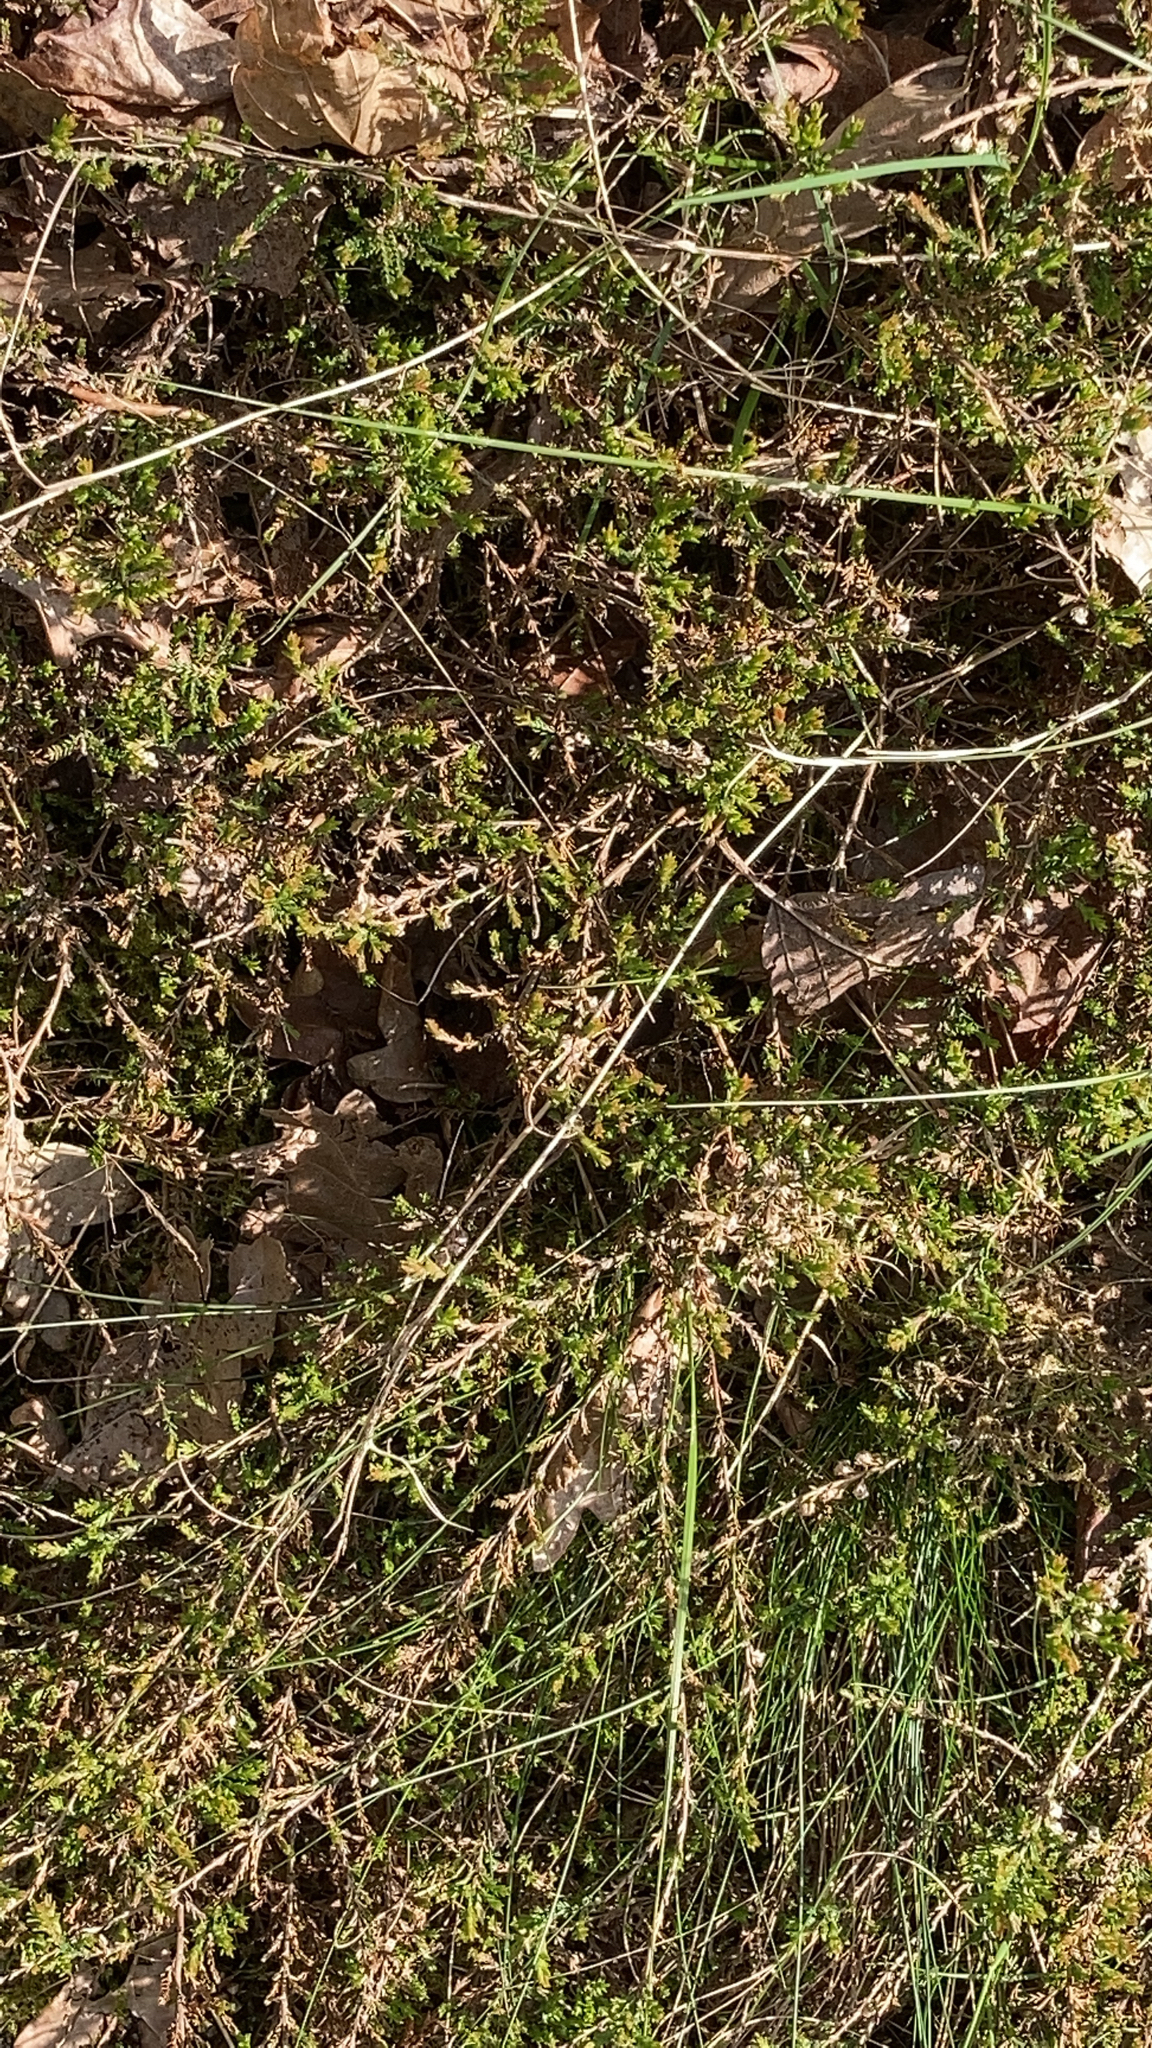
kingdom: Plantae
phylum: Tracheophyta
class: Magnoliopsida
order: Ericales
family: Ericaceae
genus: Calluna
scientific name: Calluna vulgaris
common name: Heather
